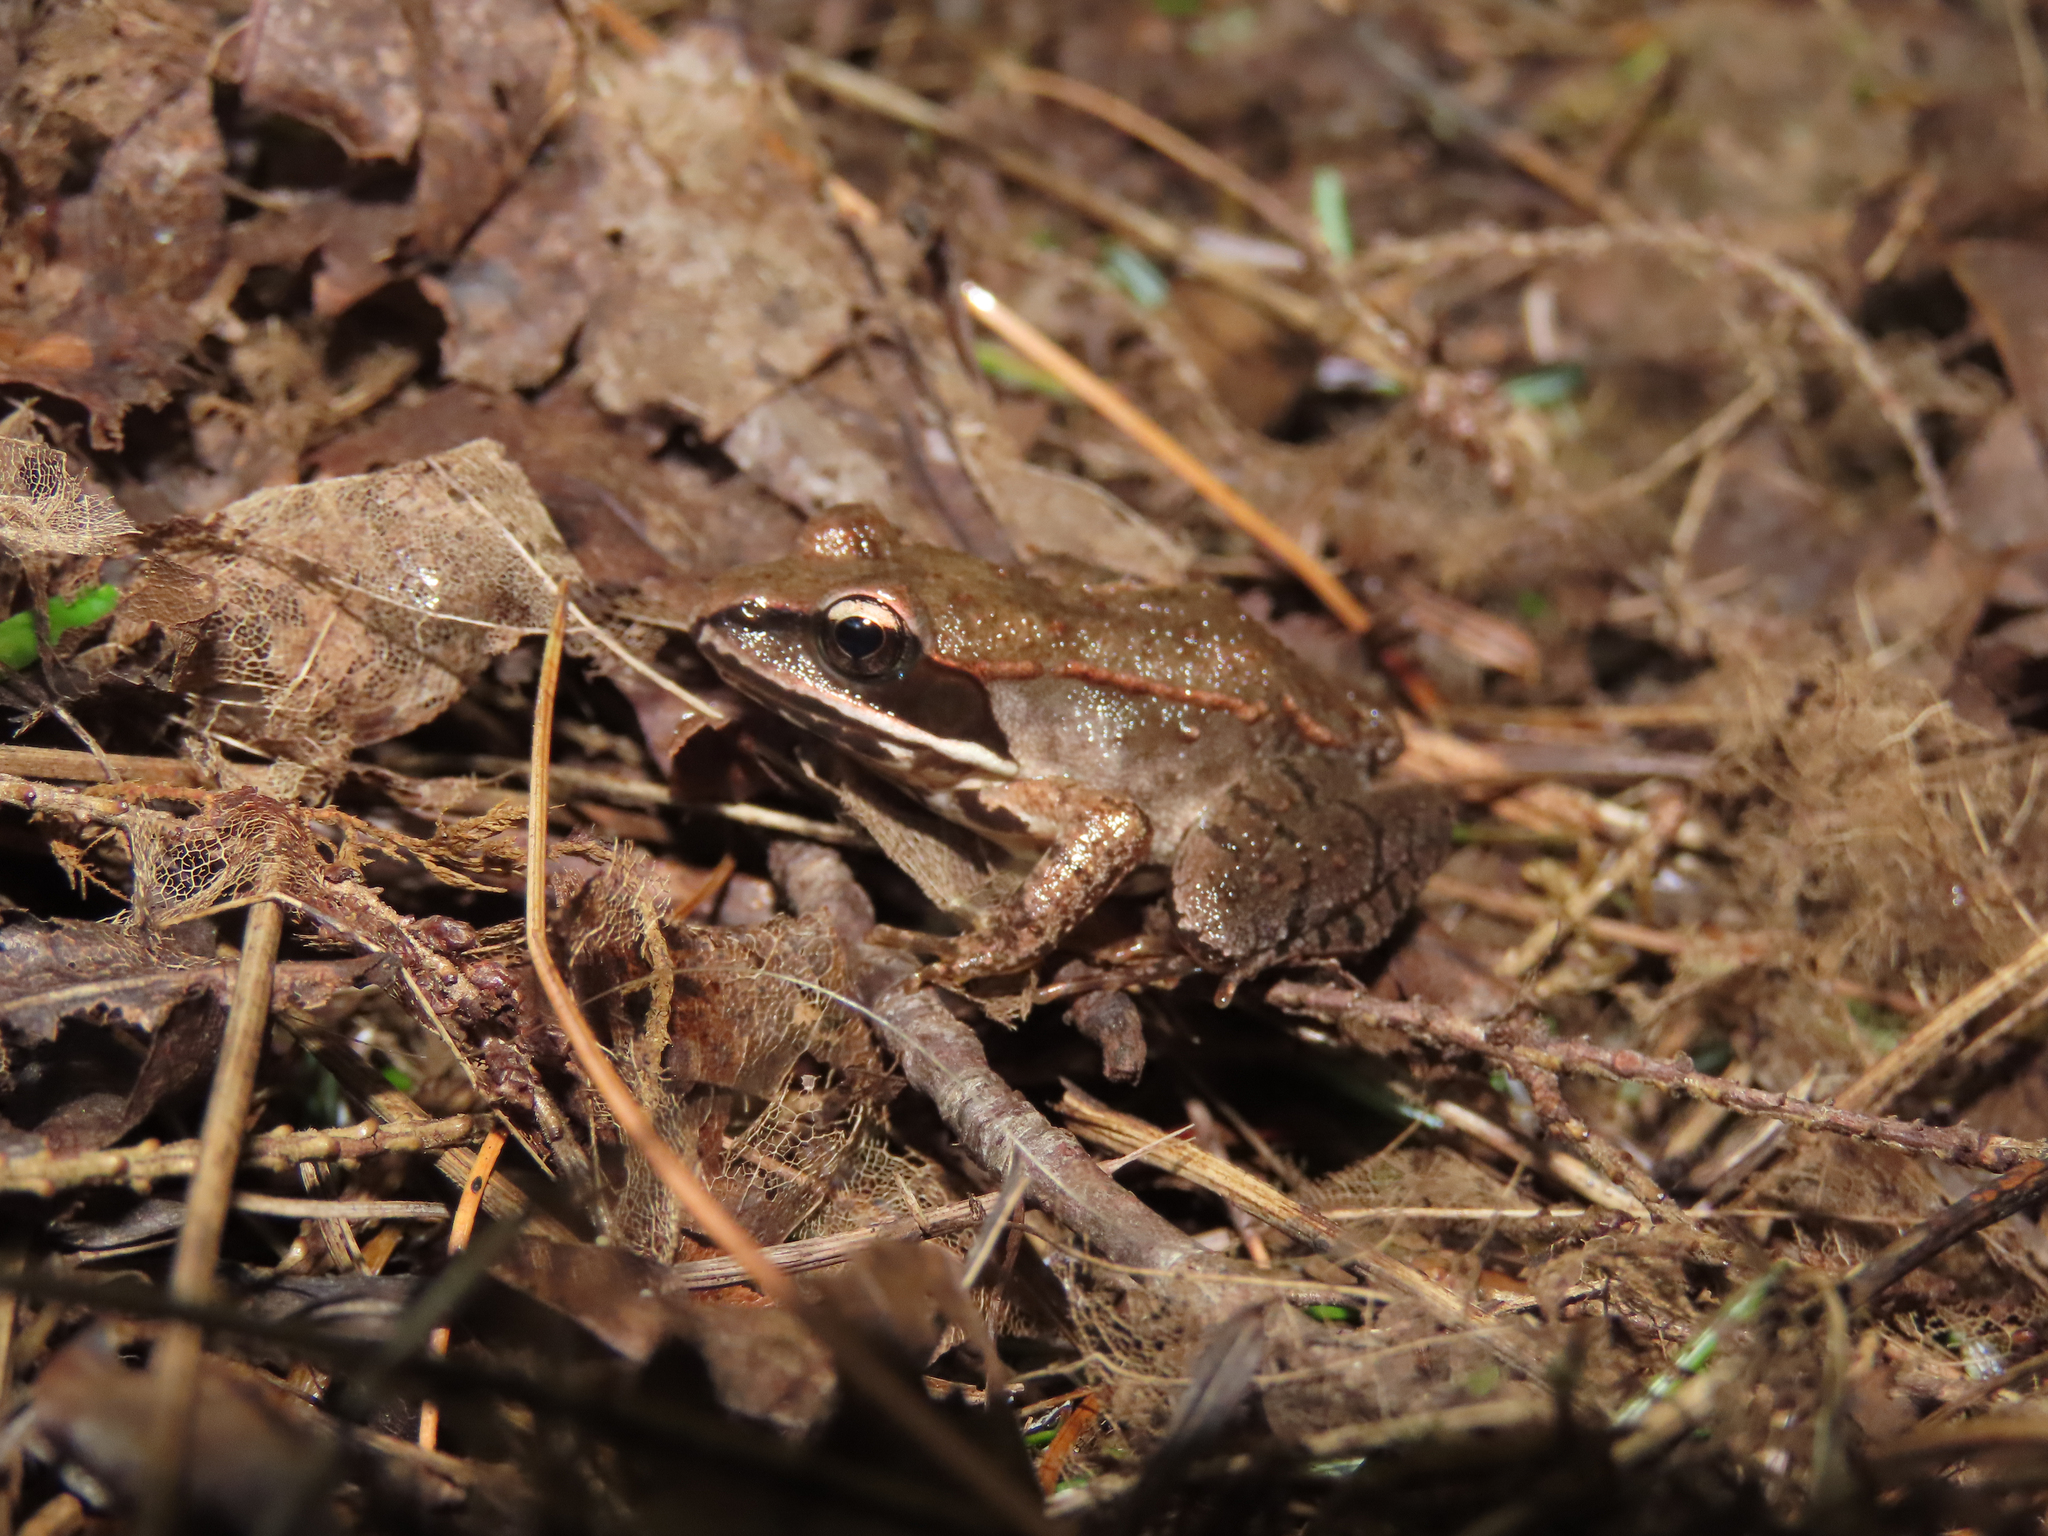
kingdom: Animalia
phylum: Chordata
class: Amphibia
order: Anura
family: Ranidae
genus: Lithobates
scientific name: Lithobates sylvaticus
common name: Wood frog
